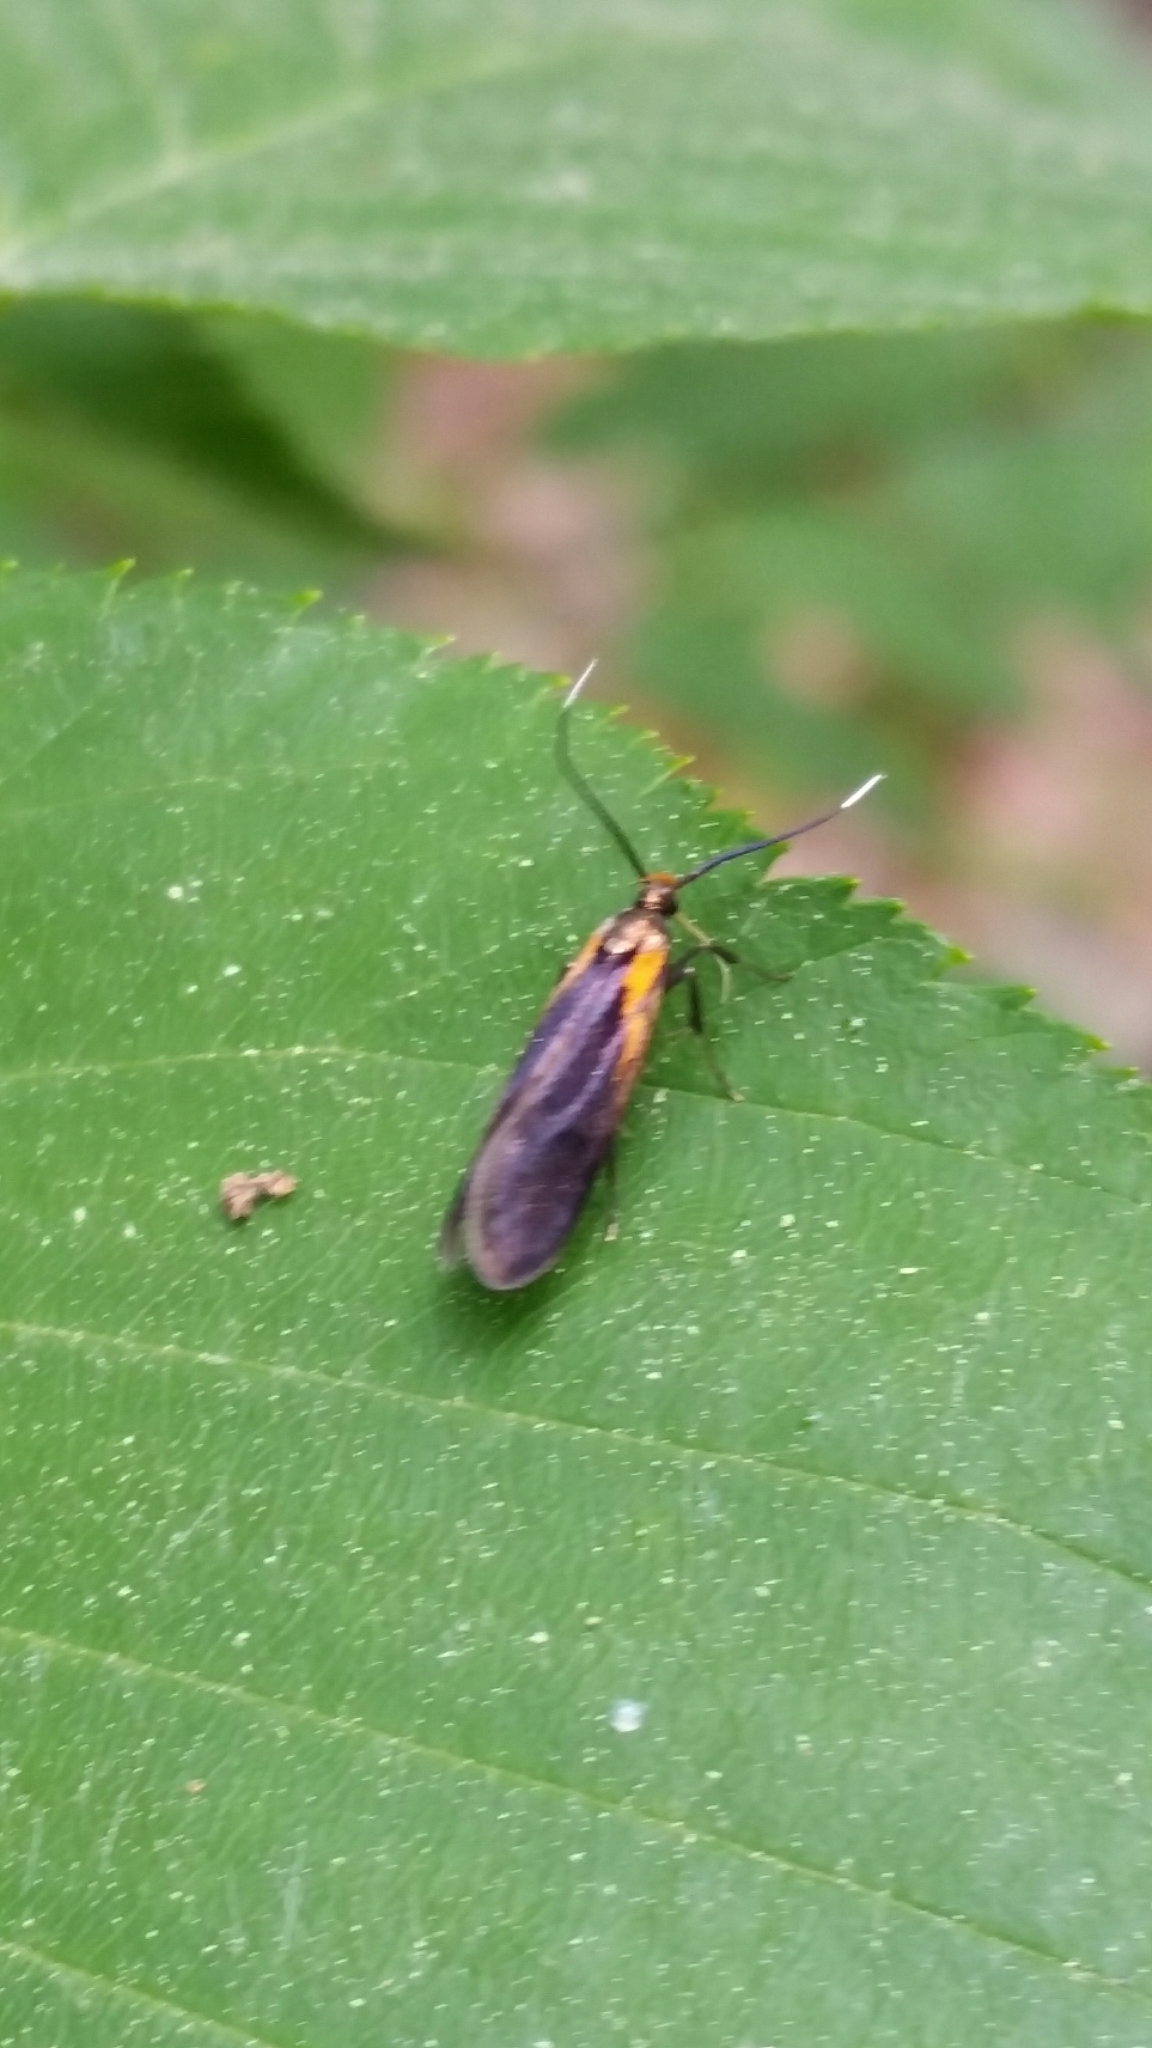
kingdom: Animalia
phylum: Arthropoda
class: Insecta
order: Lepidoptera
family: Oecophoridae
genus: Mathildana
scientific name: Mathildana newmanella
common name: Newman's mathildana moth
